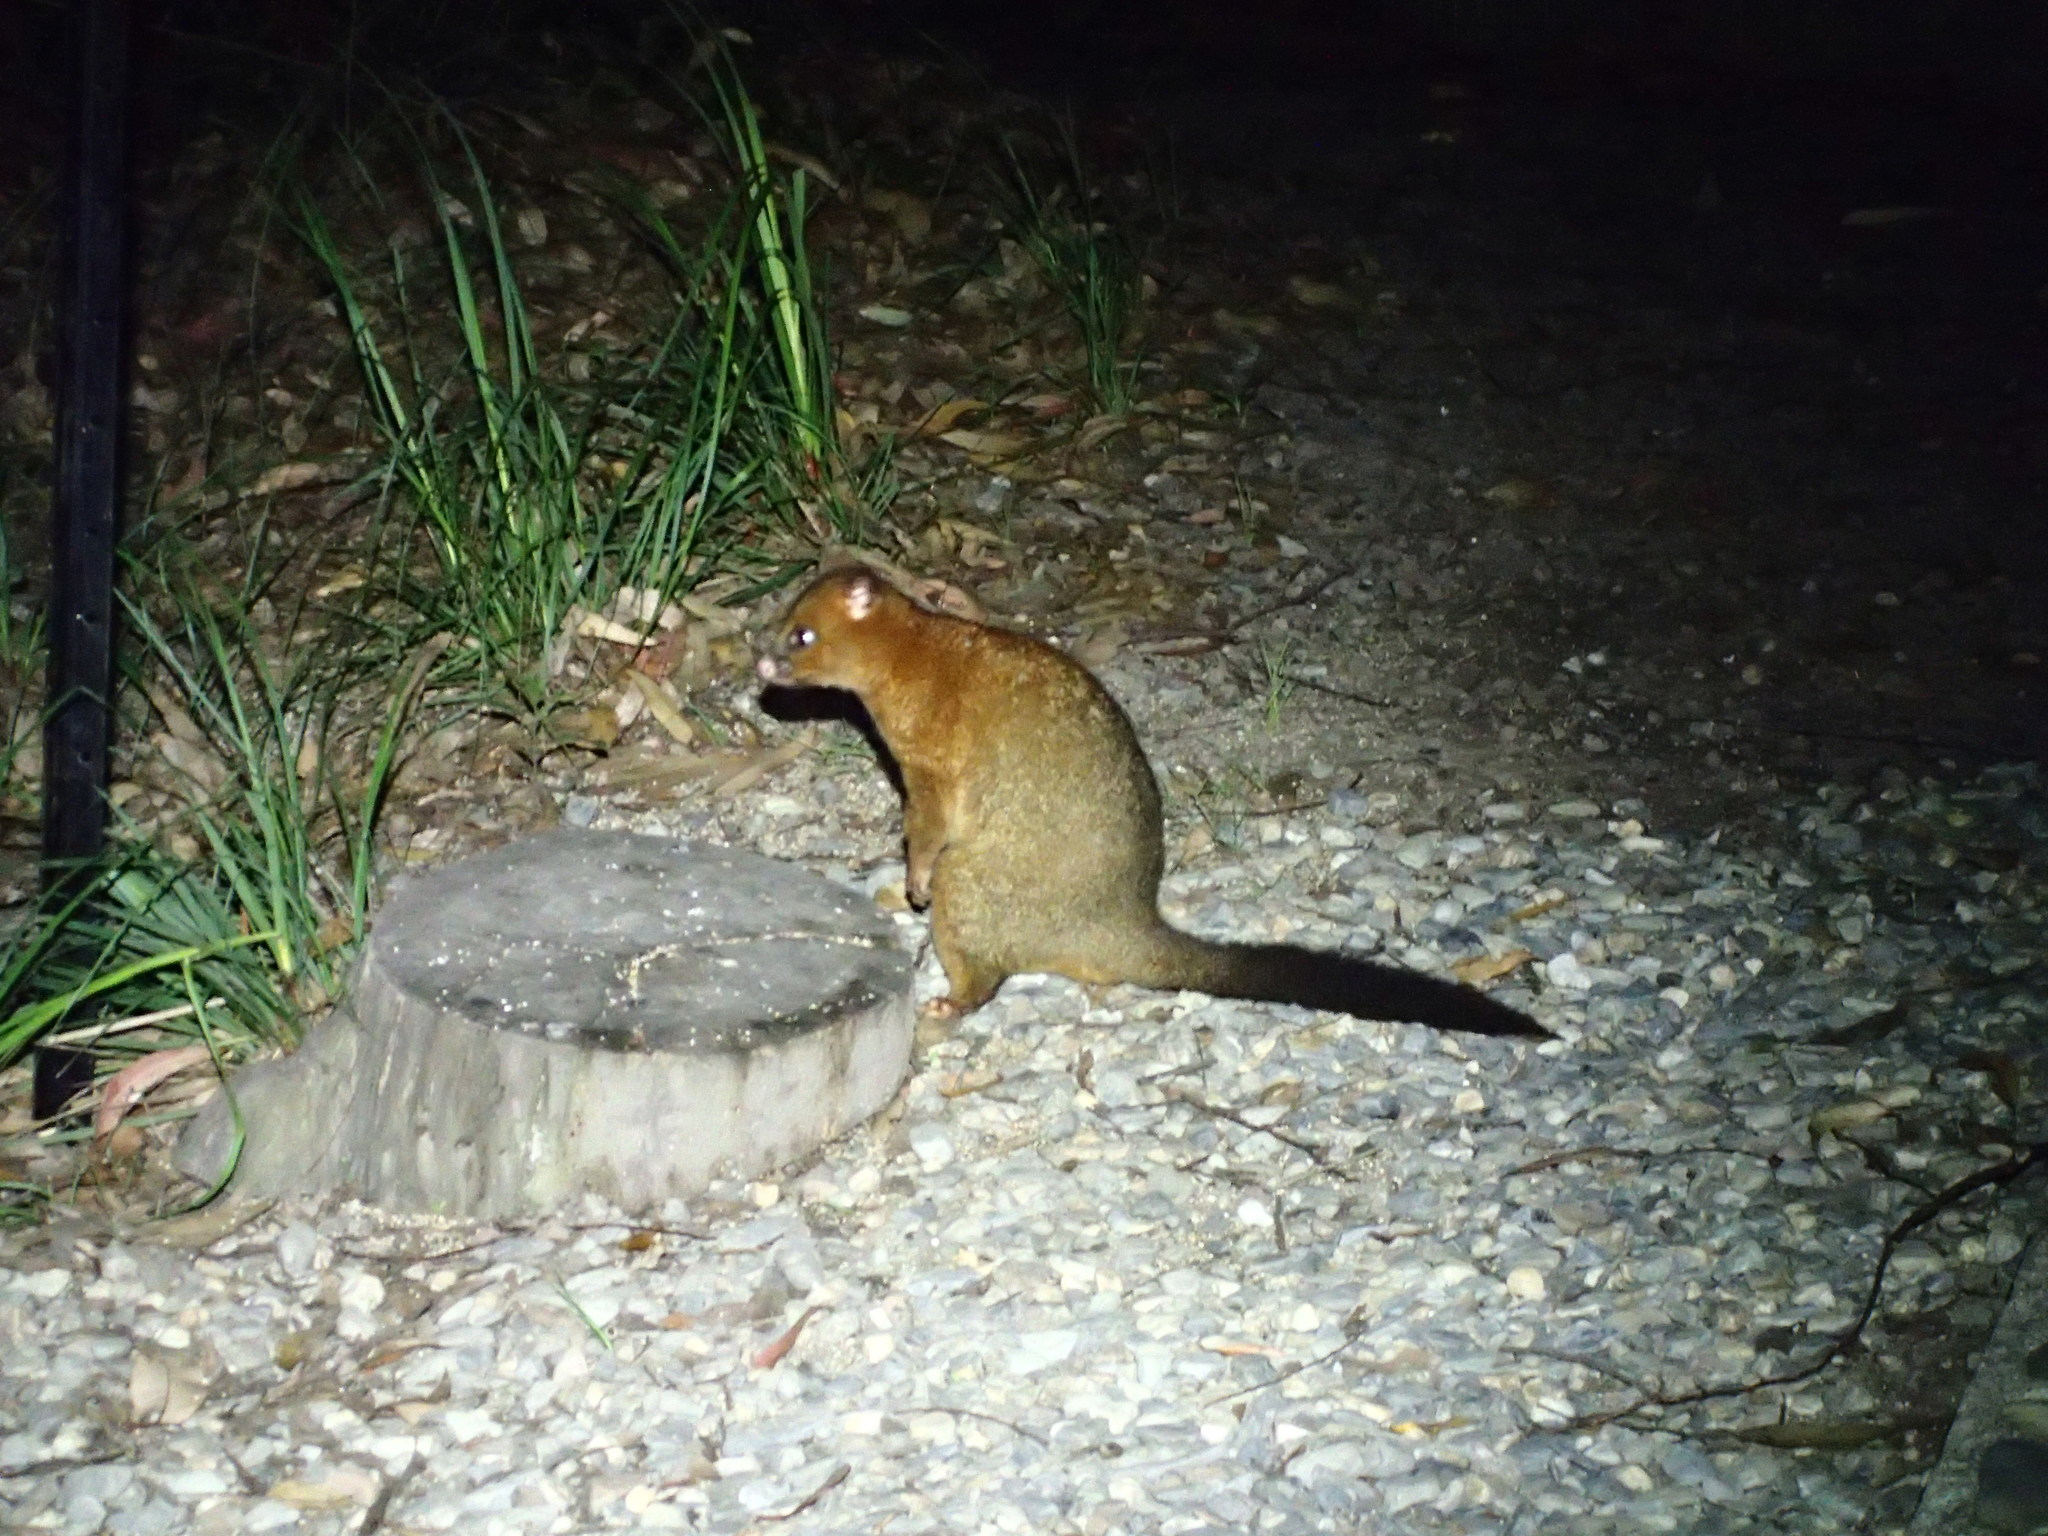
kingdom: Animalia
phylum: Chordata
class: Mammalia
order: Diprotodontia
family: Phalangeridae
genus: Trichosurus
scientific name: Trichosurus johnstonii
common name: Coppery brushtail
